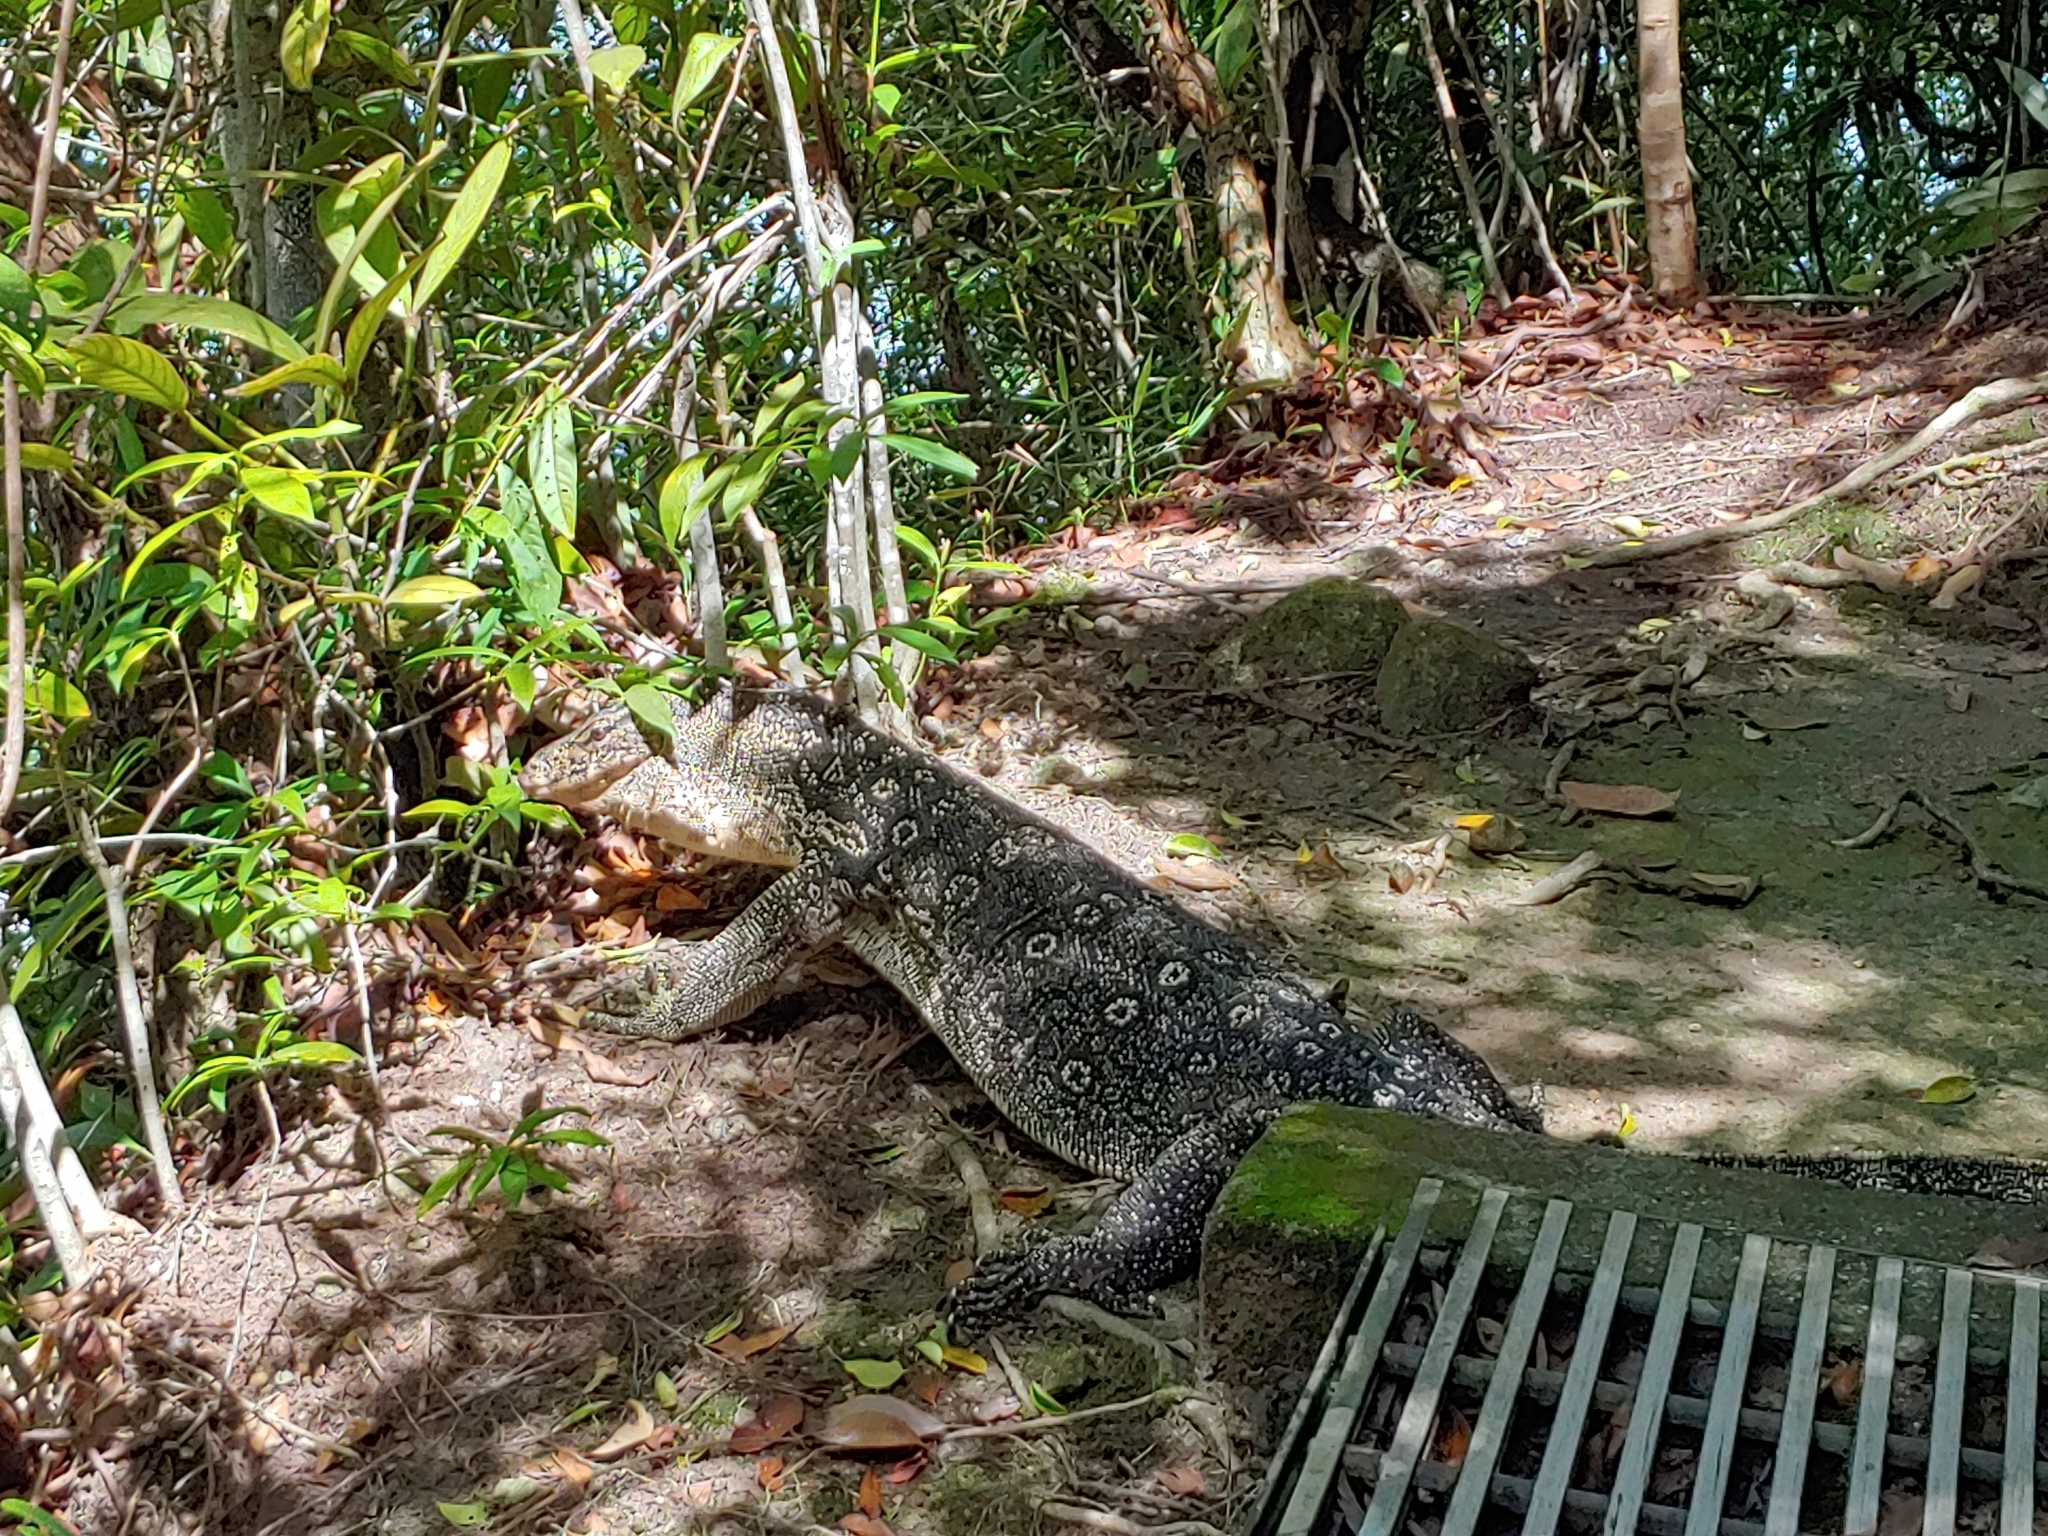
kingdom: Animalia
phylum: Chordata
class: Squamata
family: Varanidae
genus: Varanus
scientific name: Varanus salvator
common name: Common water monitor
